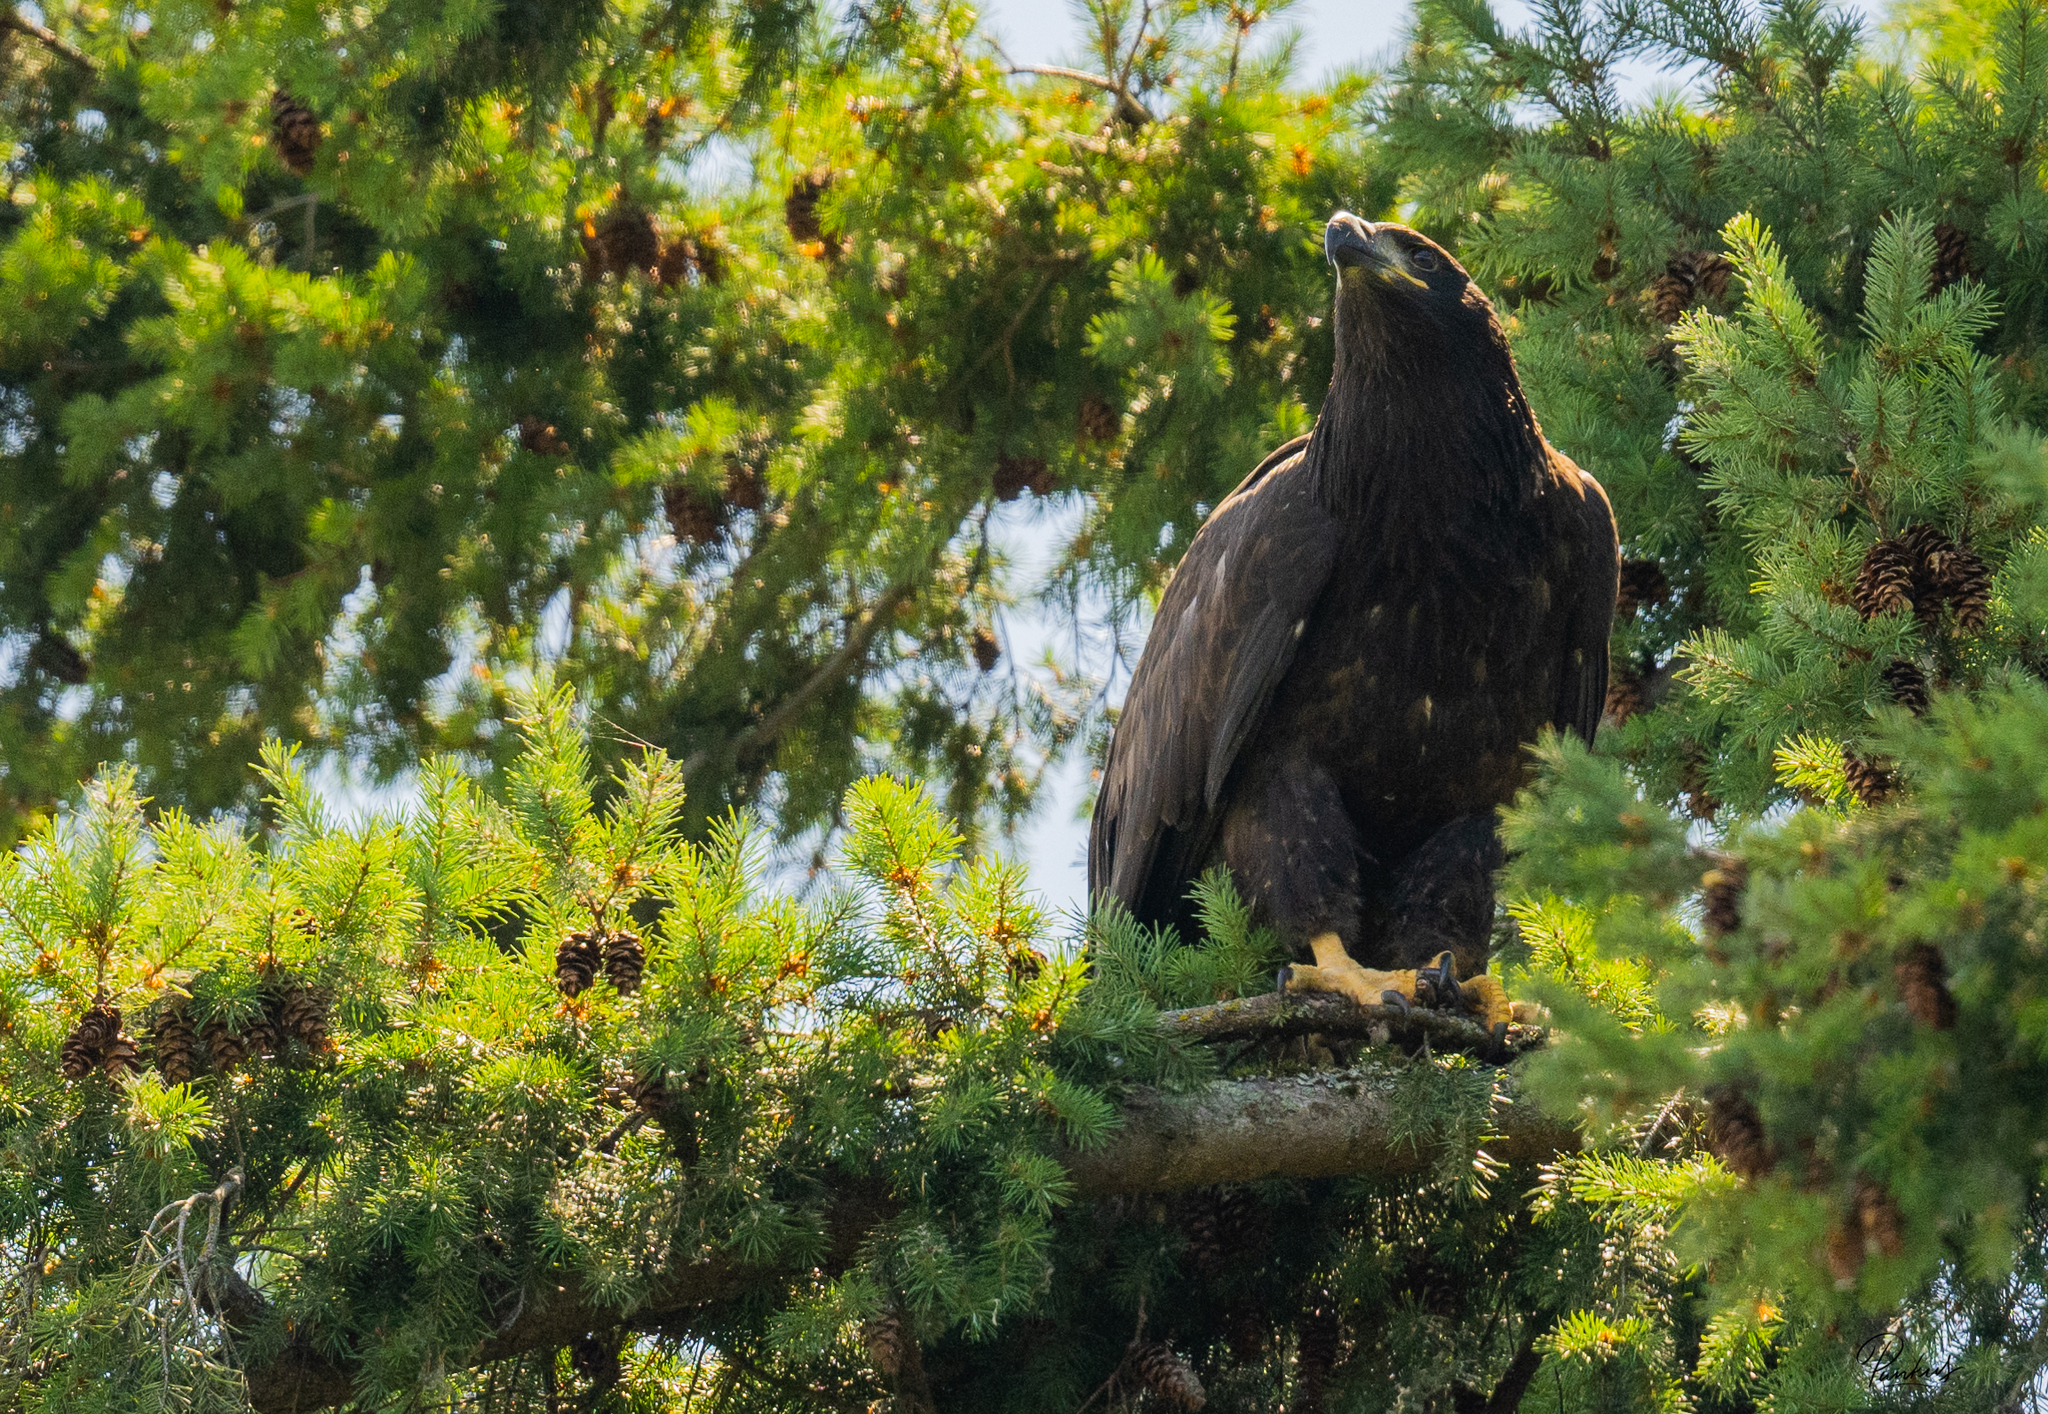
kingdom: Animalia
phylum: Chordata
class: Aves
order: Accipitriformes
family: Accipitridae
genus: Haliaeetus
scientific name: Haliaeetus leucocephalus
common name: Bald eagle
